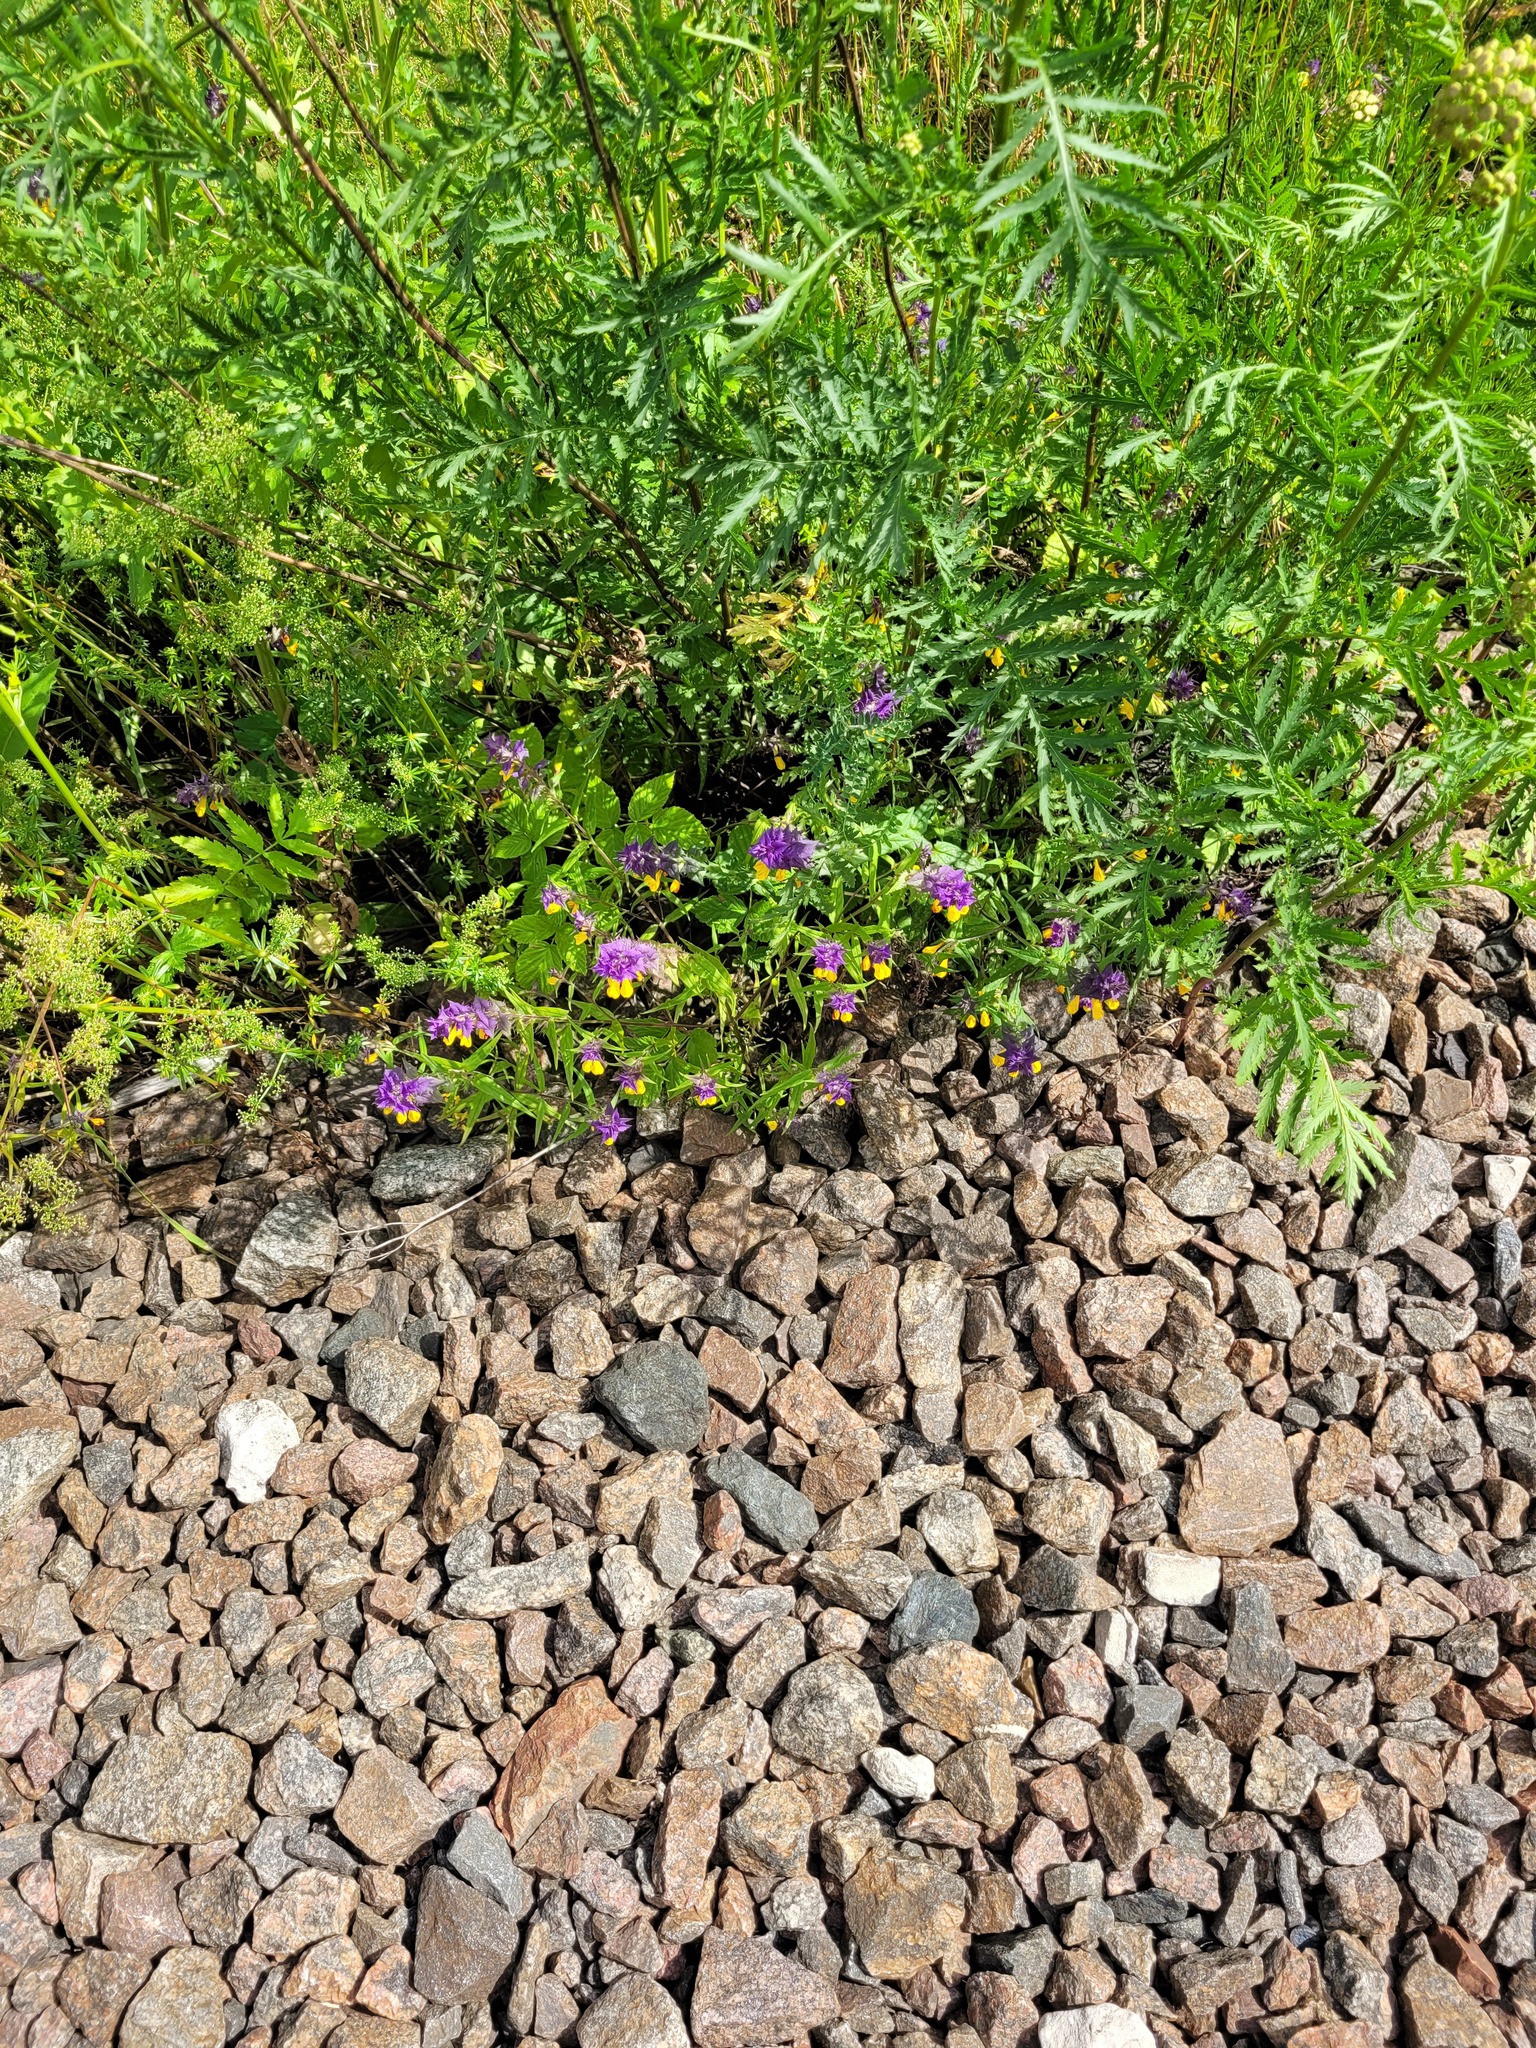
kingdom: Plantae
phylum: Tracheophyta
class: Magnoliopsida
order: Lamiales
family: Orobanchaceae
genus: Melampyrum
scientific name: Melampyrum nemorosum
